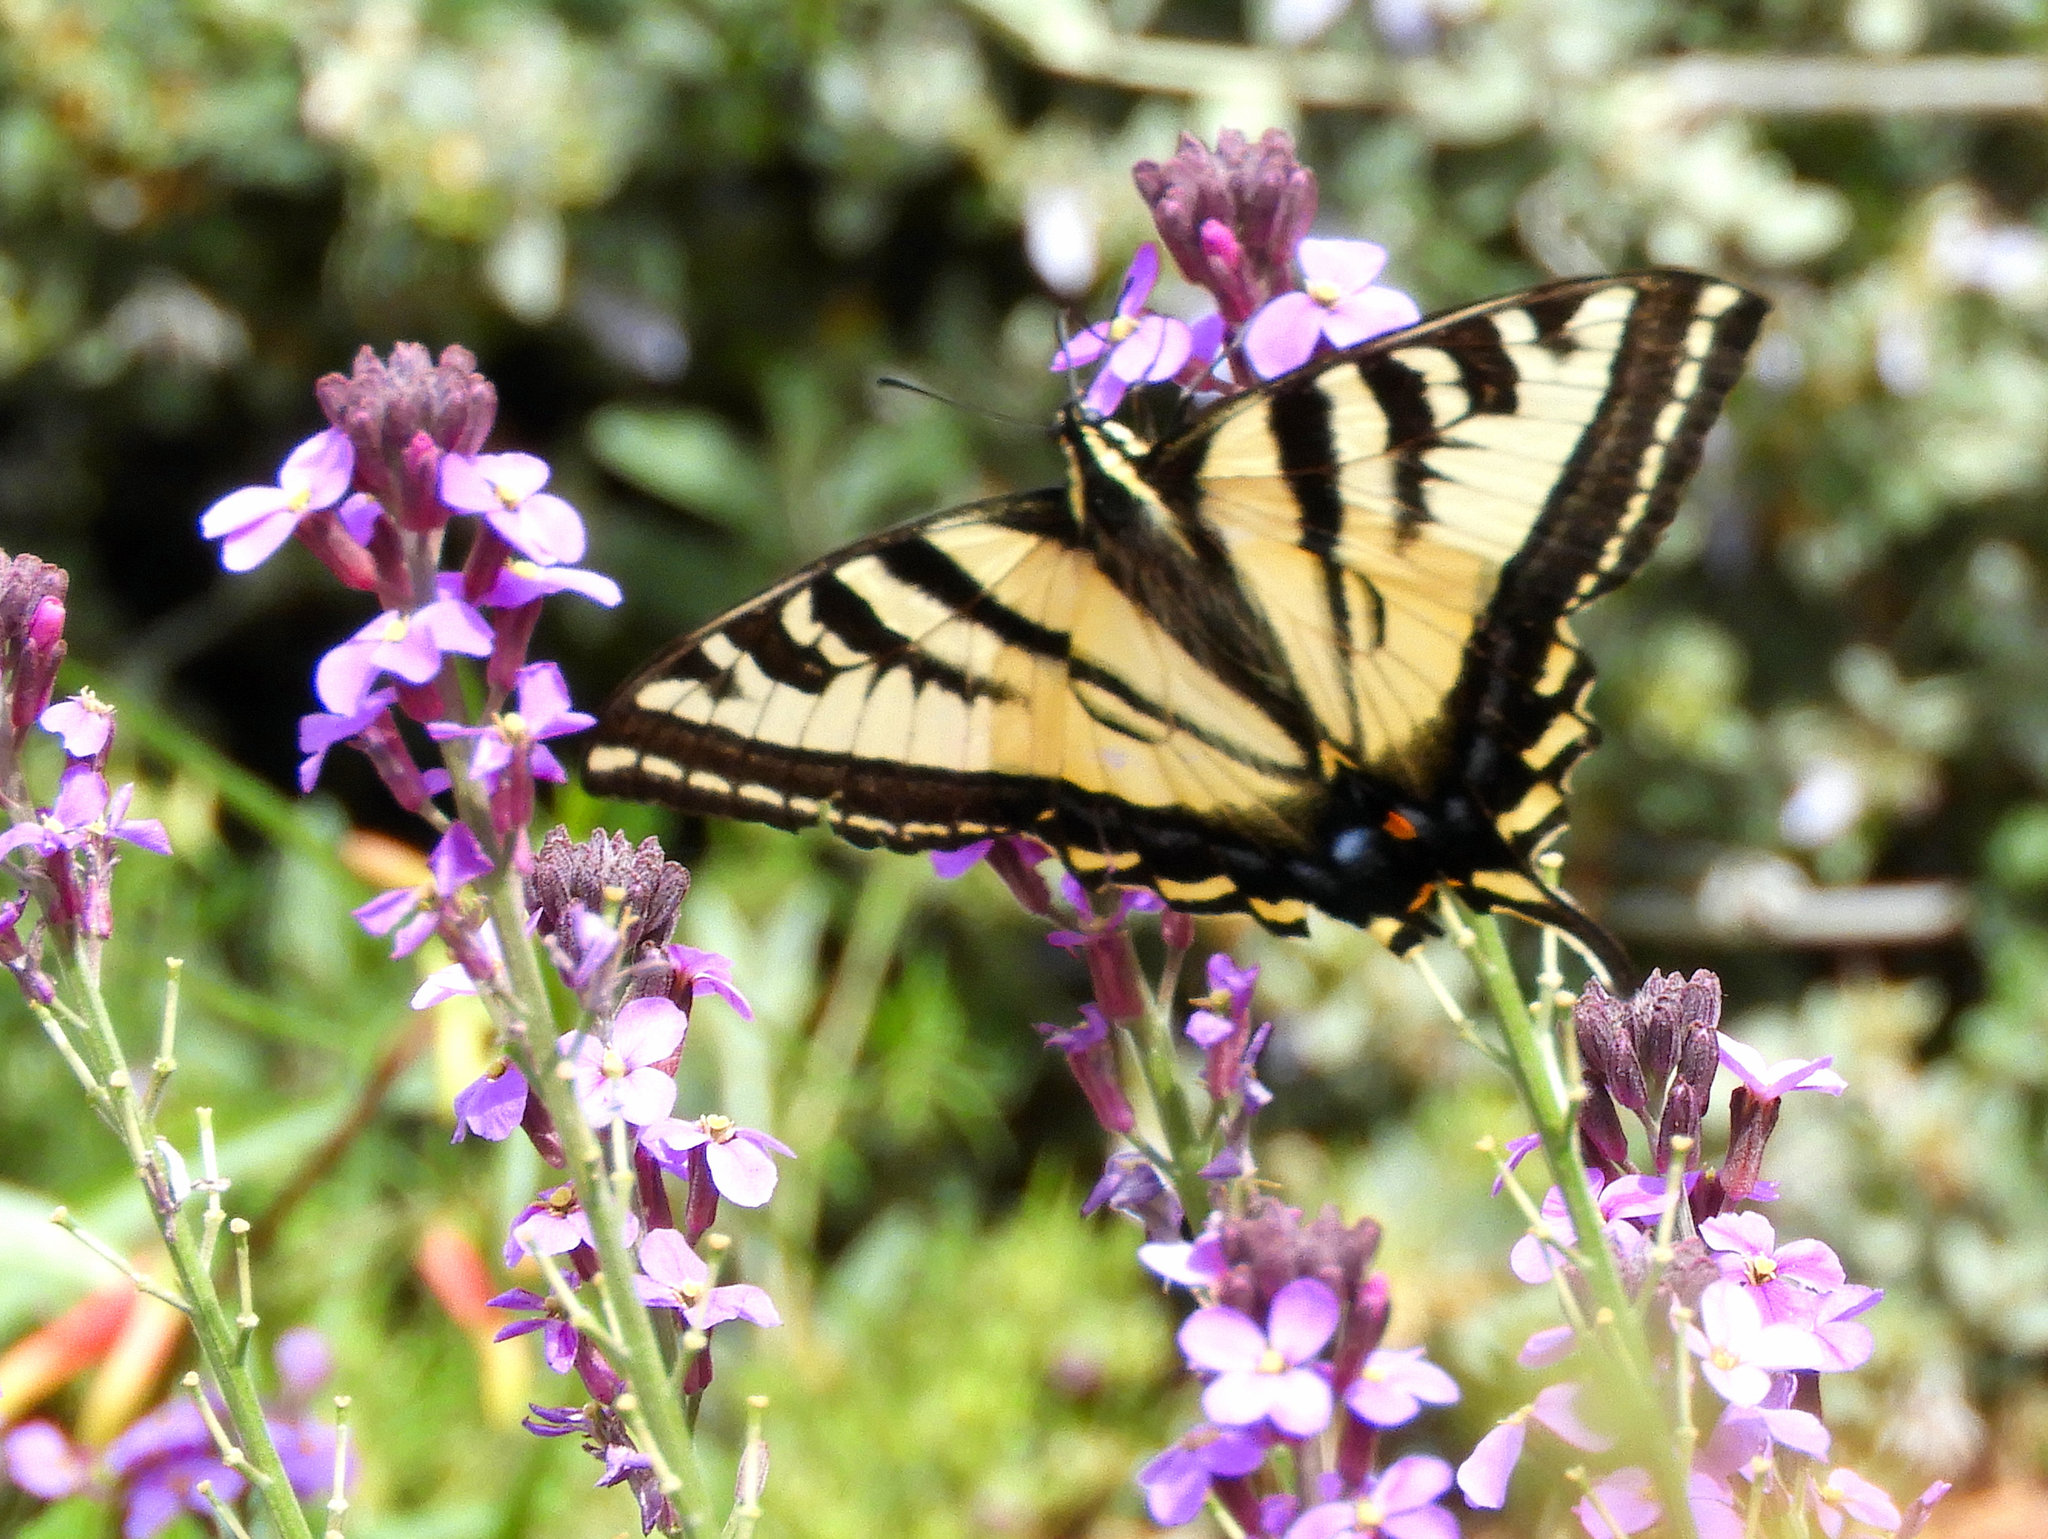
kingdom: Animalia
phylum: Arthropoda
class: Insecta
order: Lepidoptera
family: Papilionidae
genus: Papilio
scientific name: Papilio rutulus
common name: Western tiger swallowtail
